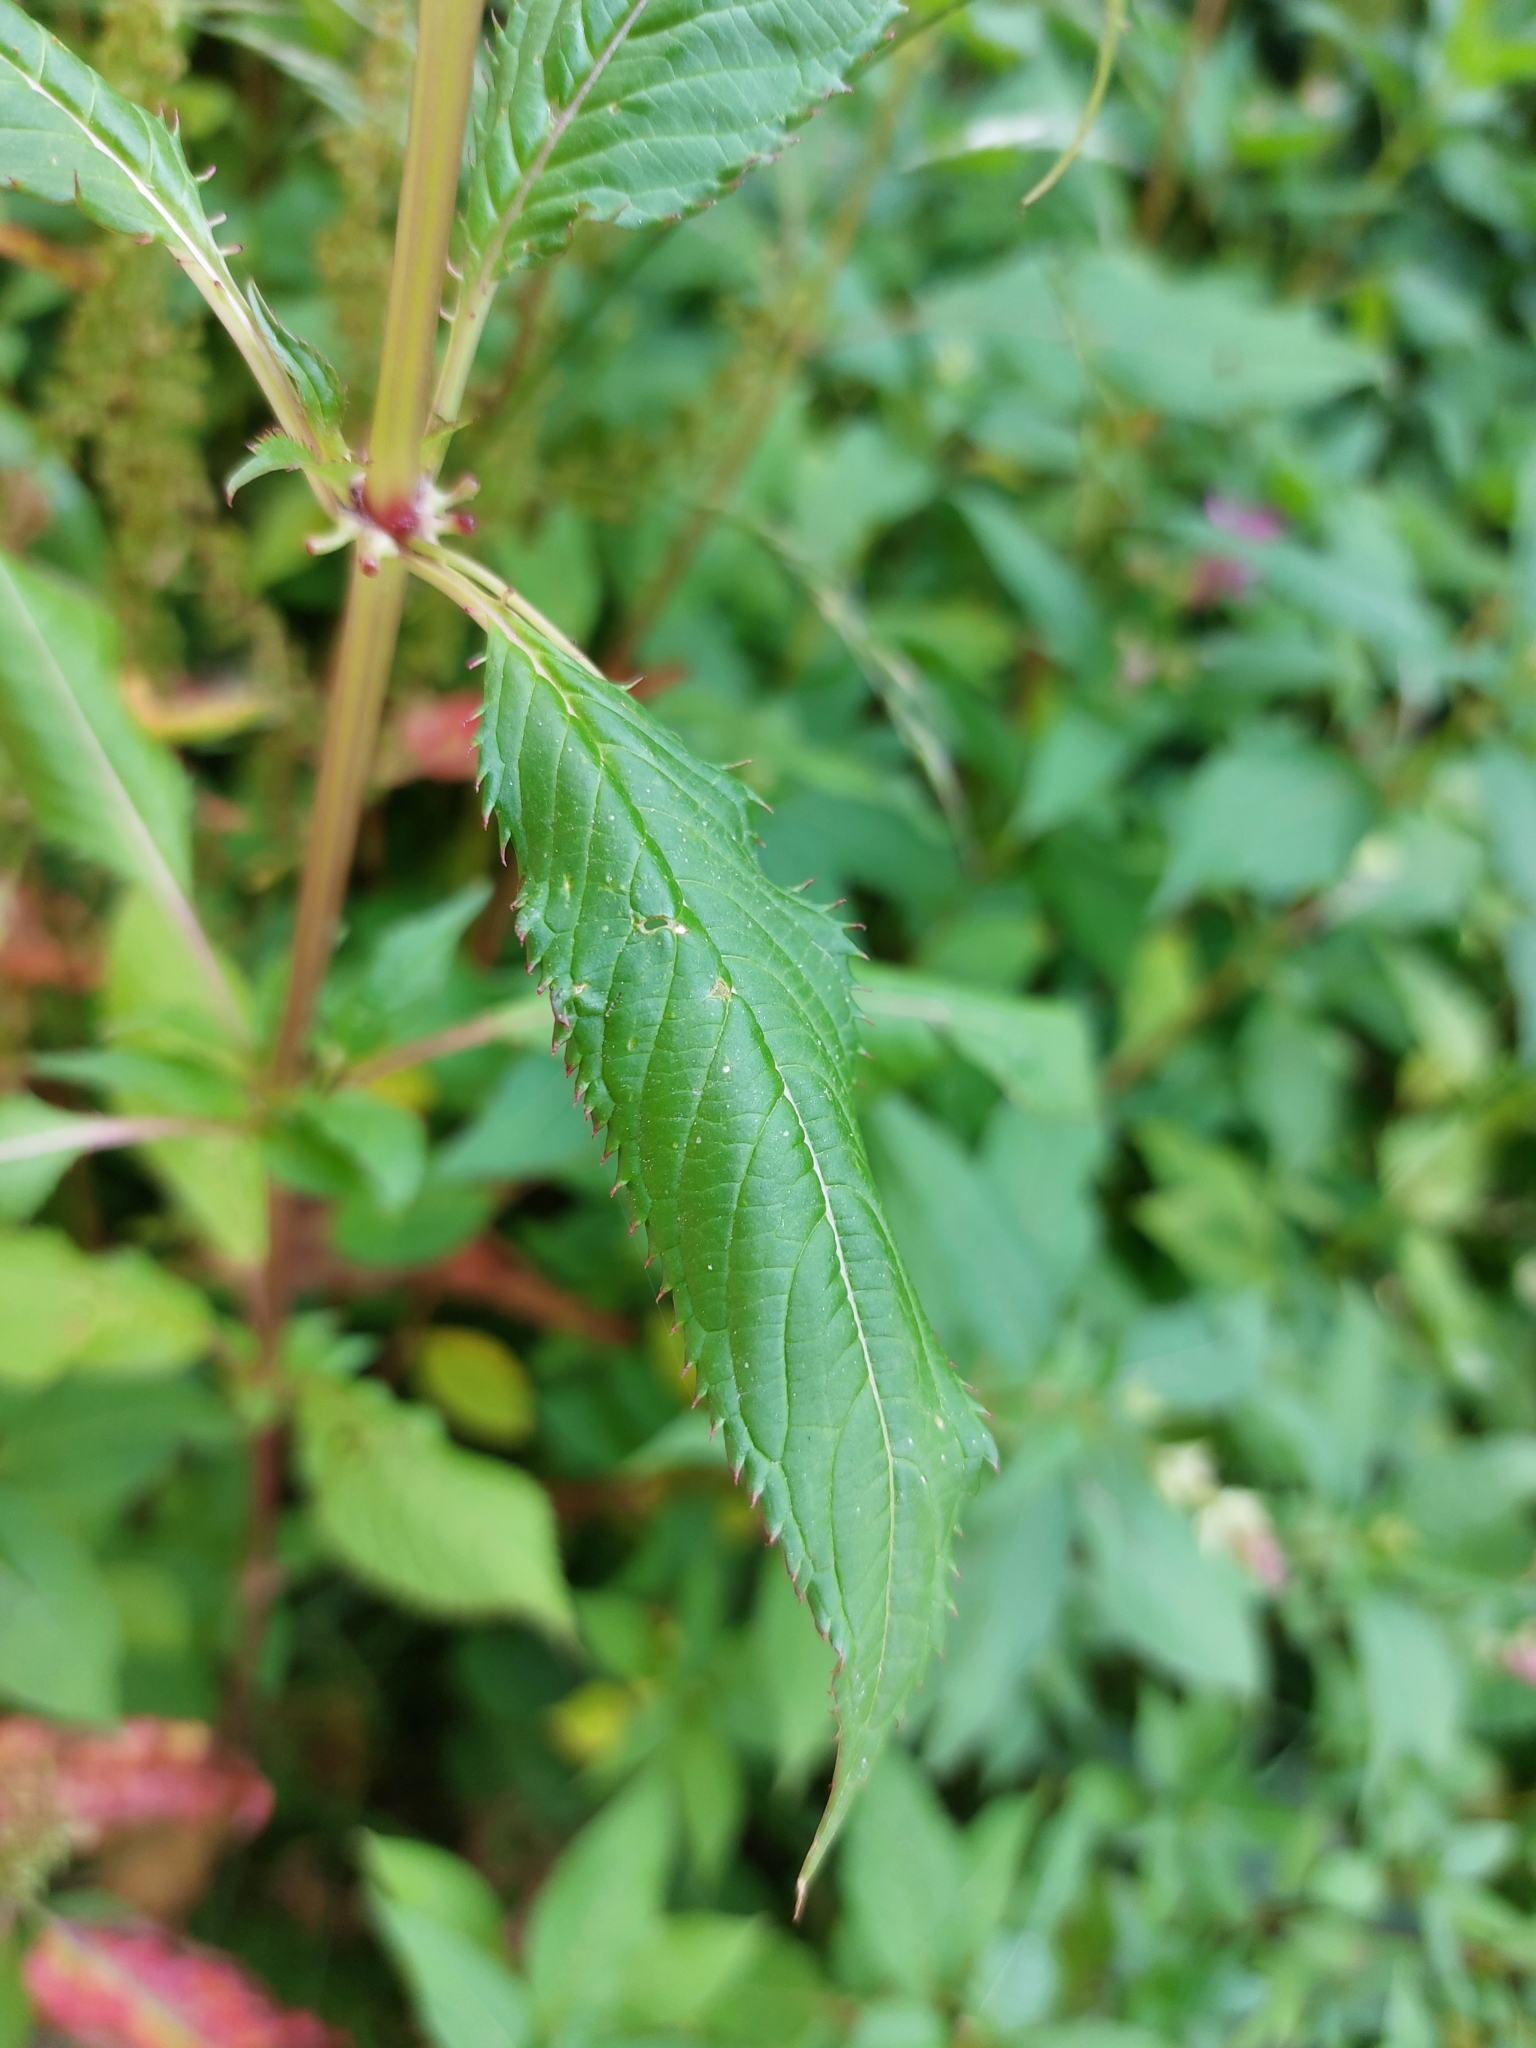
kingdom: Plantae
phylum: Tracheophyta
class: Magnoliopsida
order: Ericales
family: Balsaminaceae
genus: Impatiens
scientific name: Impatiens glandulifera
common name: Himalayan balsam
